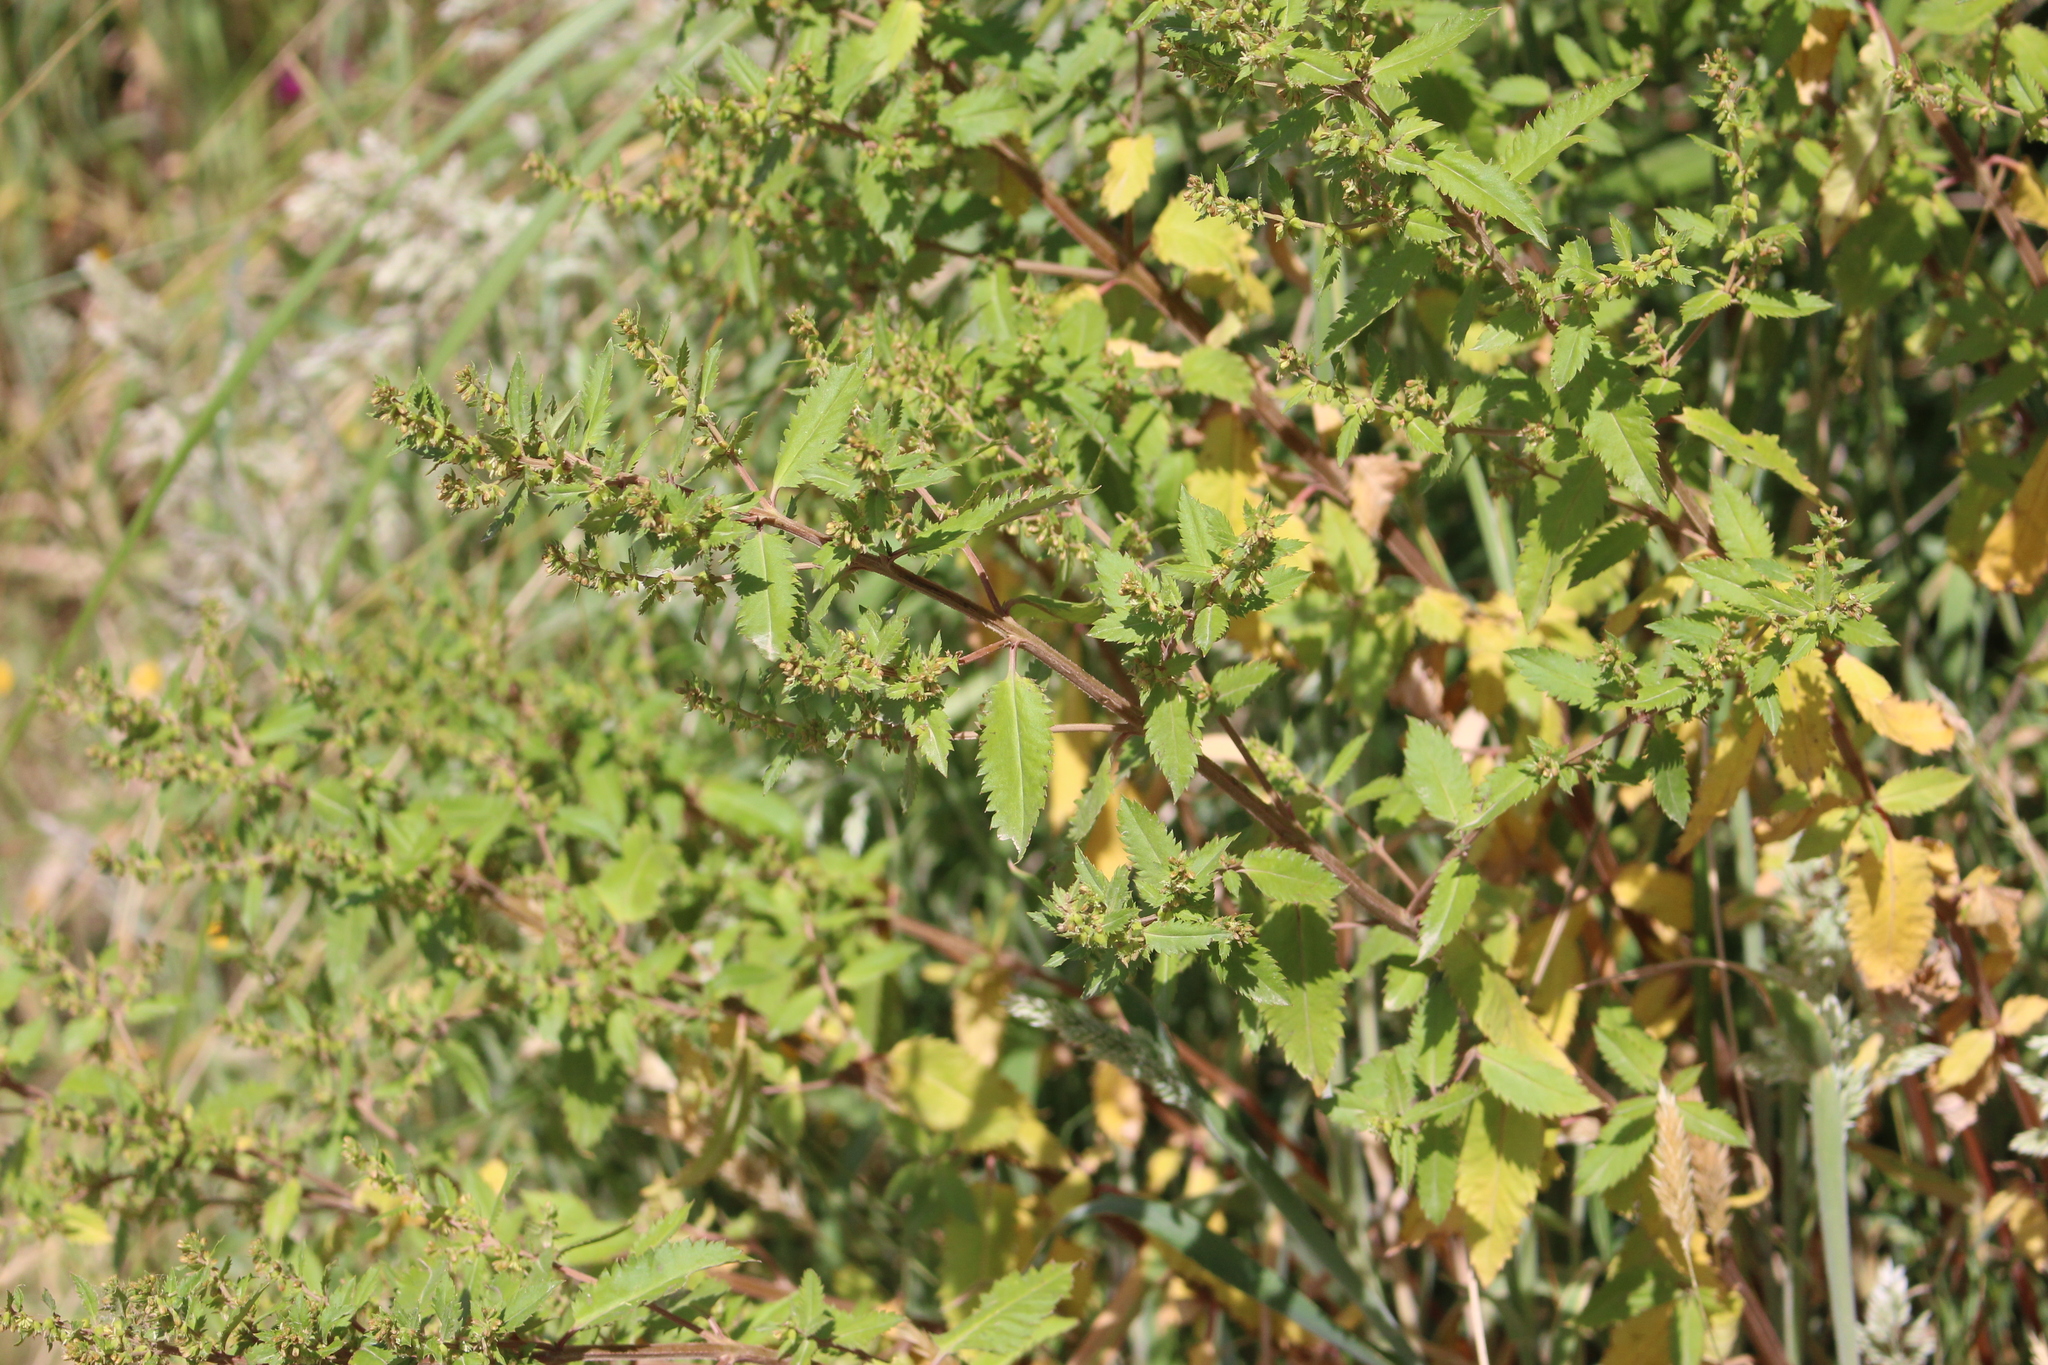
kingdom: Plantae
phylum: Tracheophyta
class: Magnoliopsida
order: Saxifragales
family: Haloragaceae
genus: Haloragis
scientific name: Haloragis erecta
